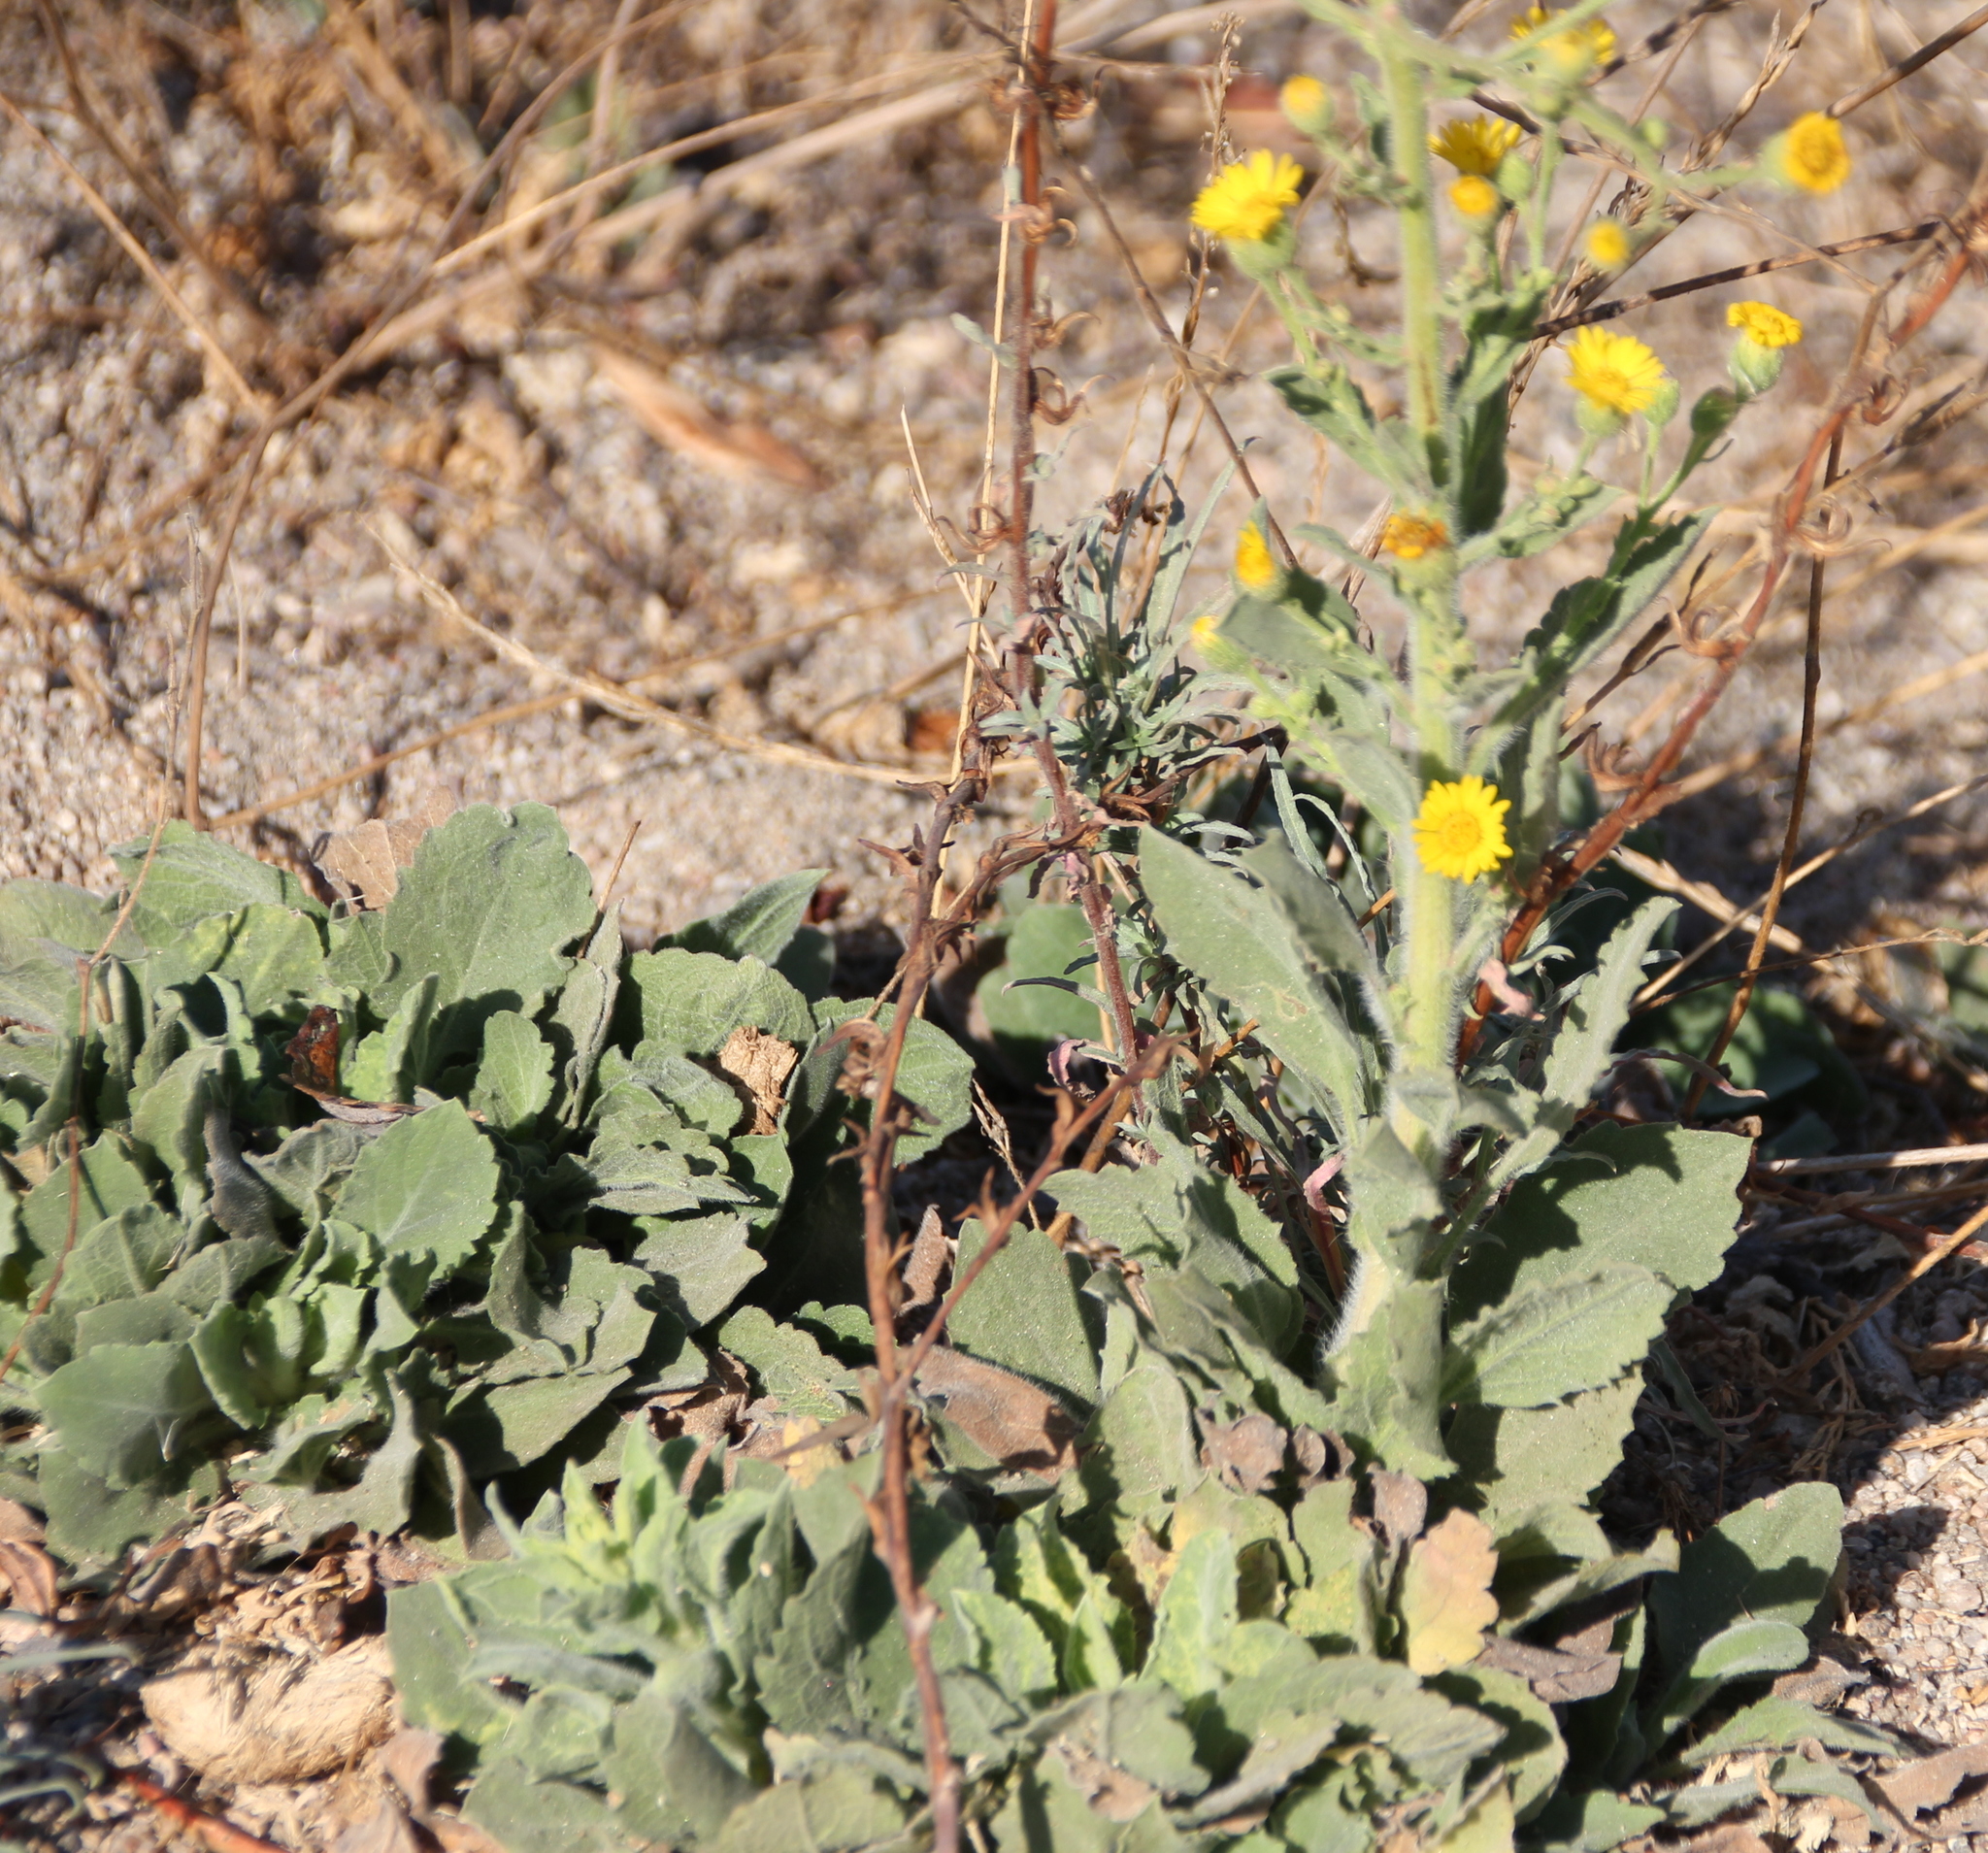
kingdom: Plantae
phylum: Tracheophyta
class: Magnoliopsida
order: Asterales
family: Asteraceae
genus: Heterotheca
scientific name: Heterotheca grandiflora
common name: Telegraphweed
